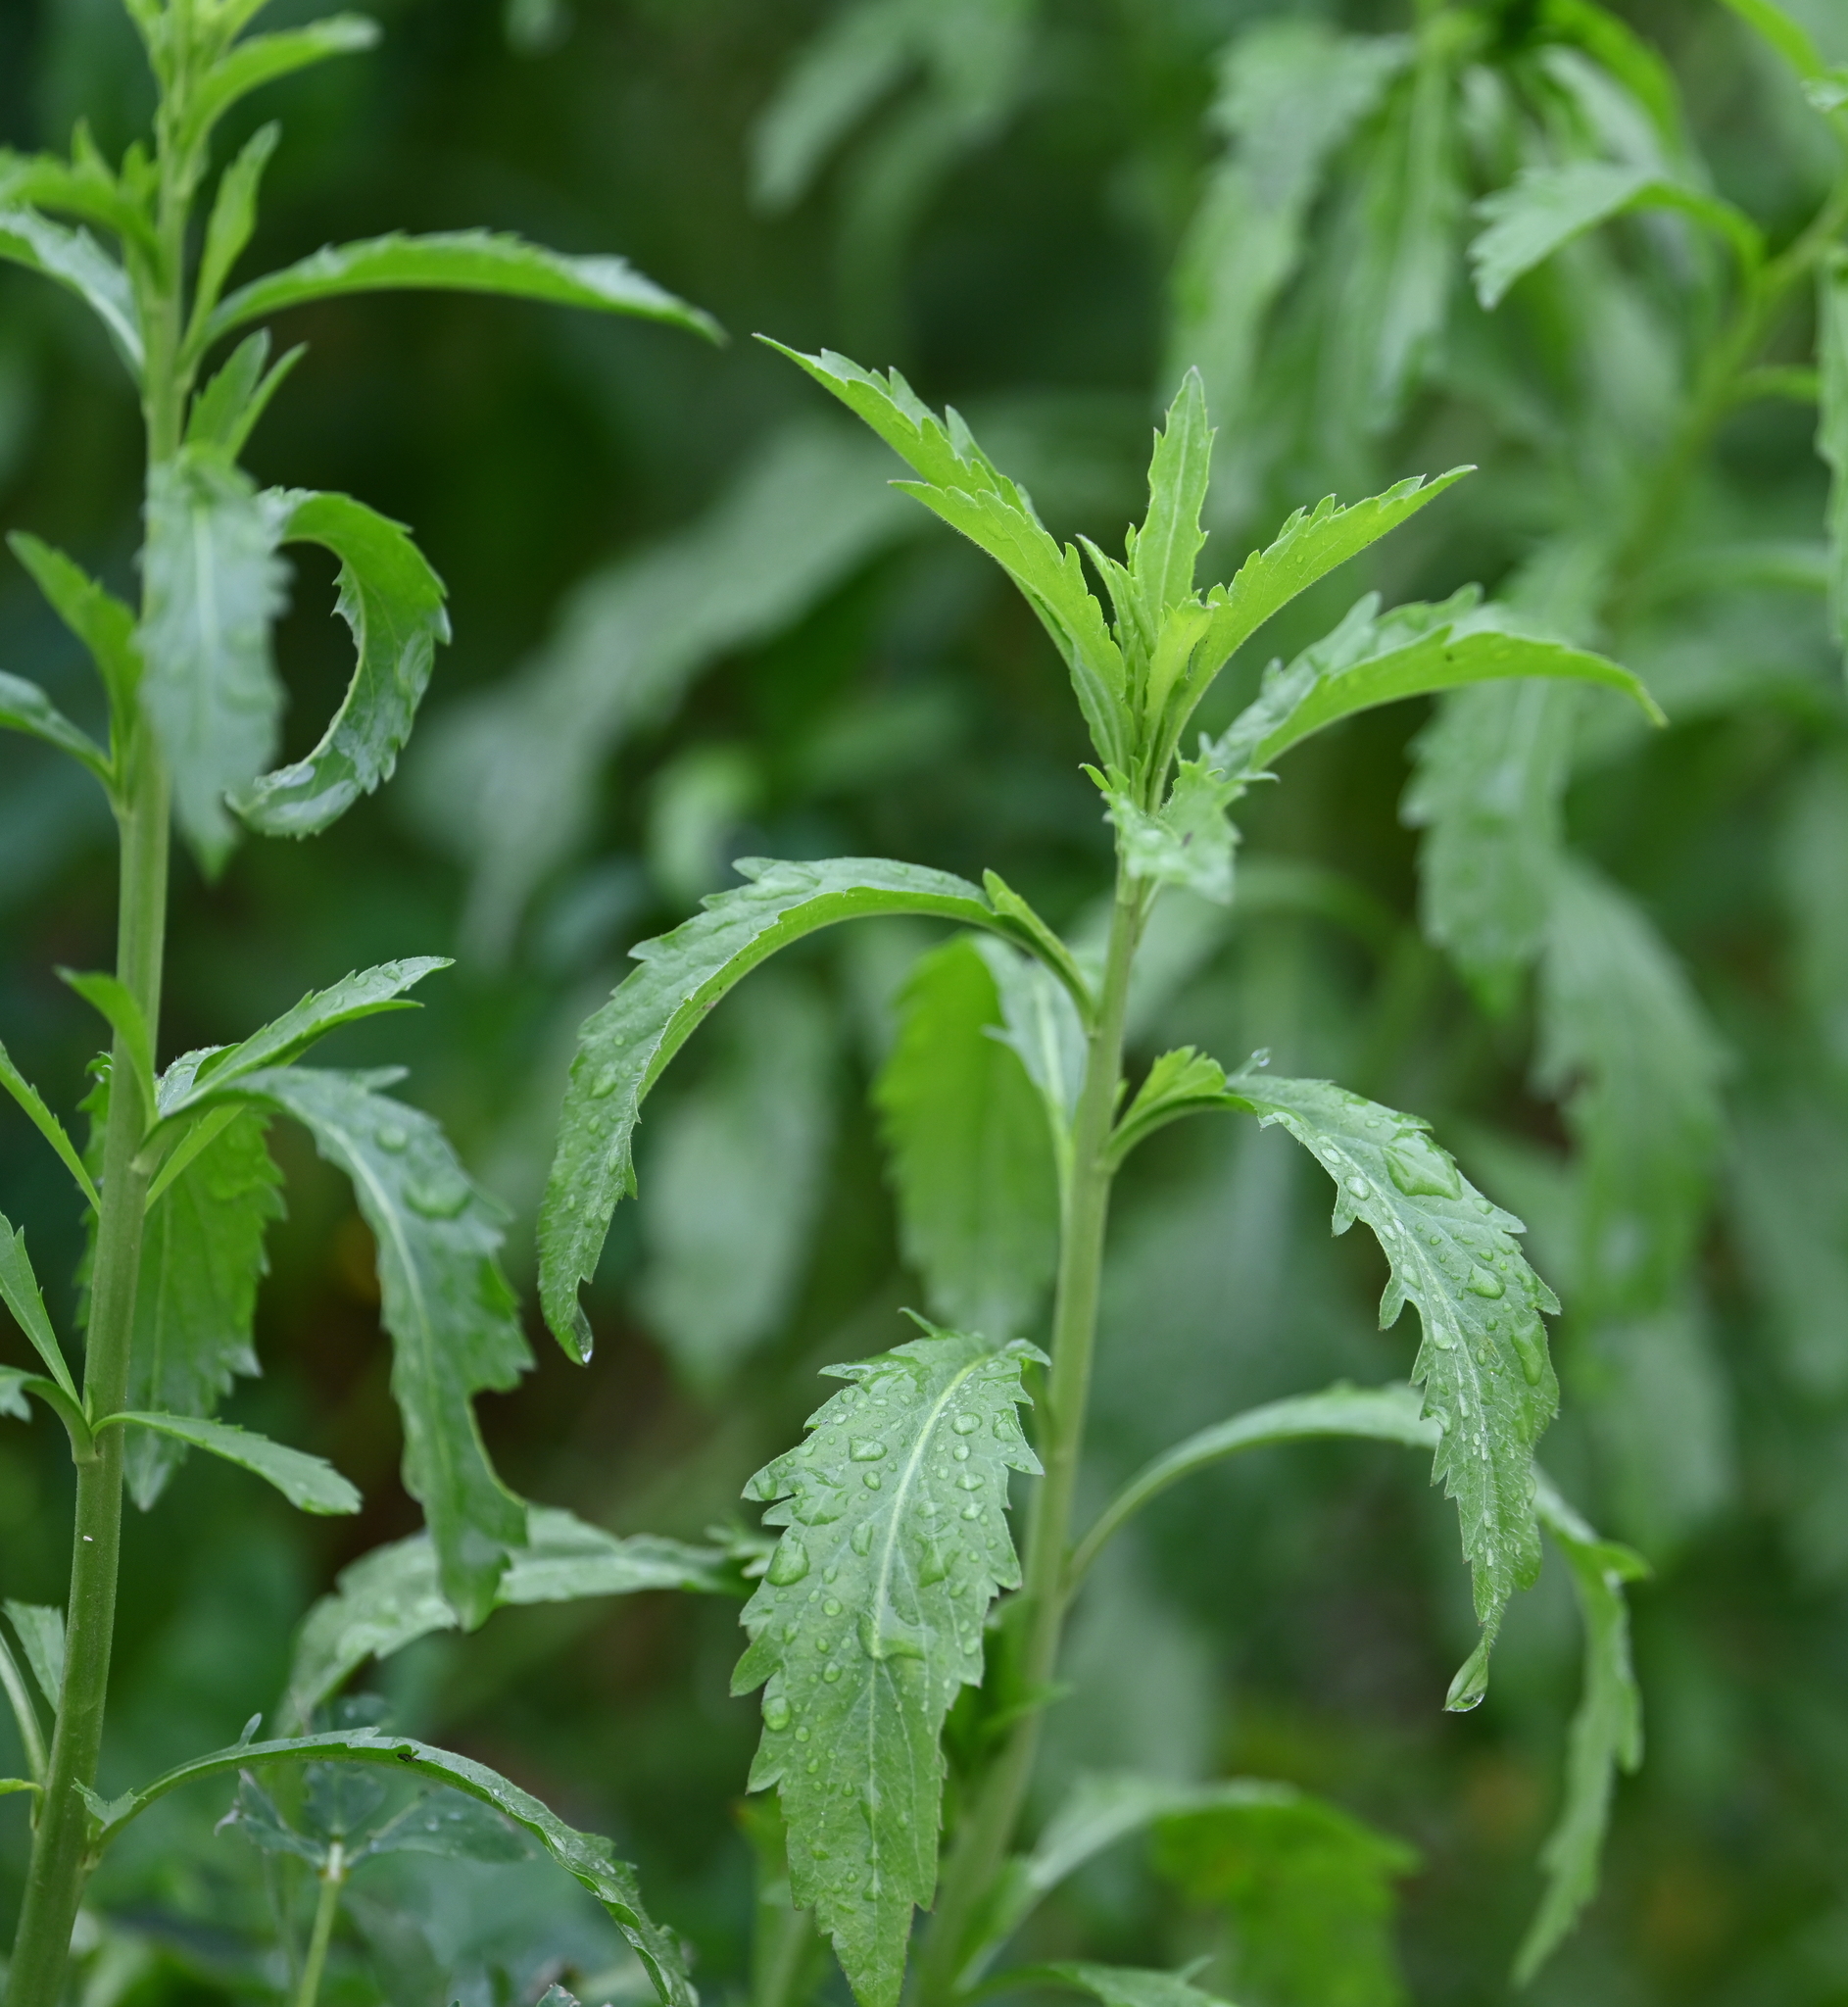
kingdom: Plantae
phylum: Tracheophyta
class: Magnoliopsida
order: Brassicales
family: Brassicaceae
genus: Lepidium
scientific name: Lepidium virginicum
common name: Least pepperwort
